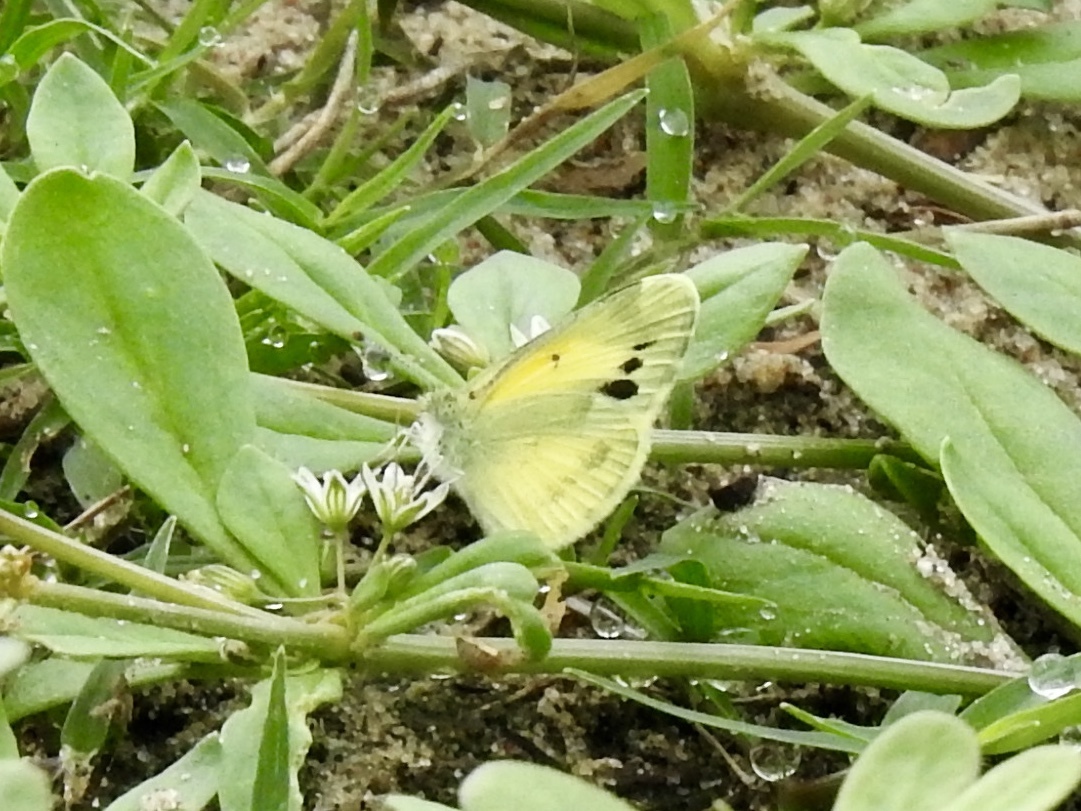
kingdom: Animalia
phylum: Arthropoda
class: Insecta
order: Lepidoptera
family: Pieridae
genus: Nathalis
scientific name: Nathalis iole
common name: Dainty sulphur
